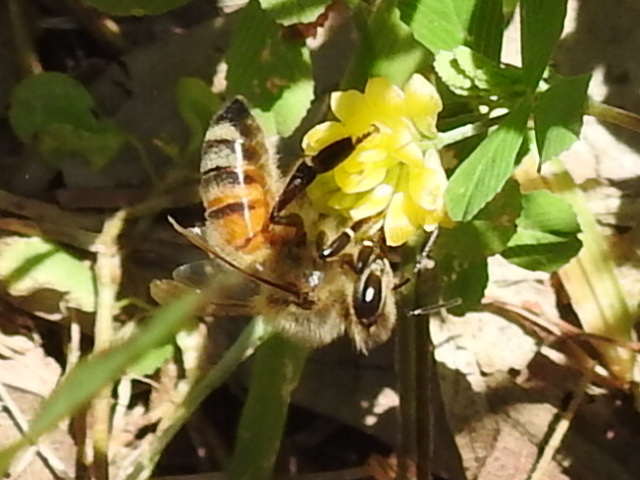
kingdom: Animalia
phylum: Arthropoda
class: Insecta
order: Hymenoptera
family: Apidae
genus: Apis
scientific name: Apis mellifera
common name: Honey bee
